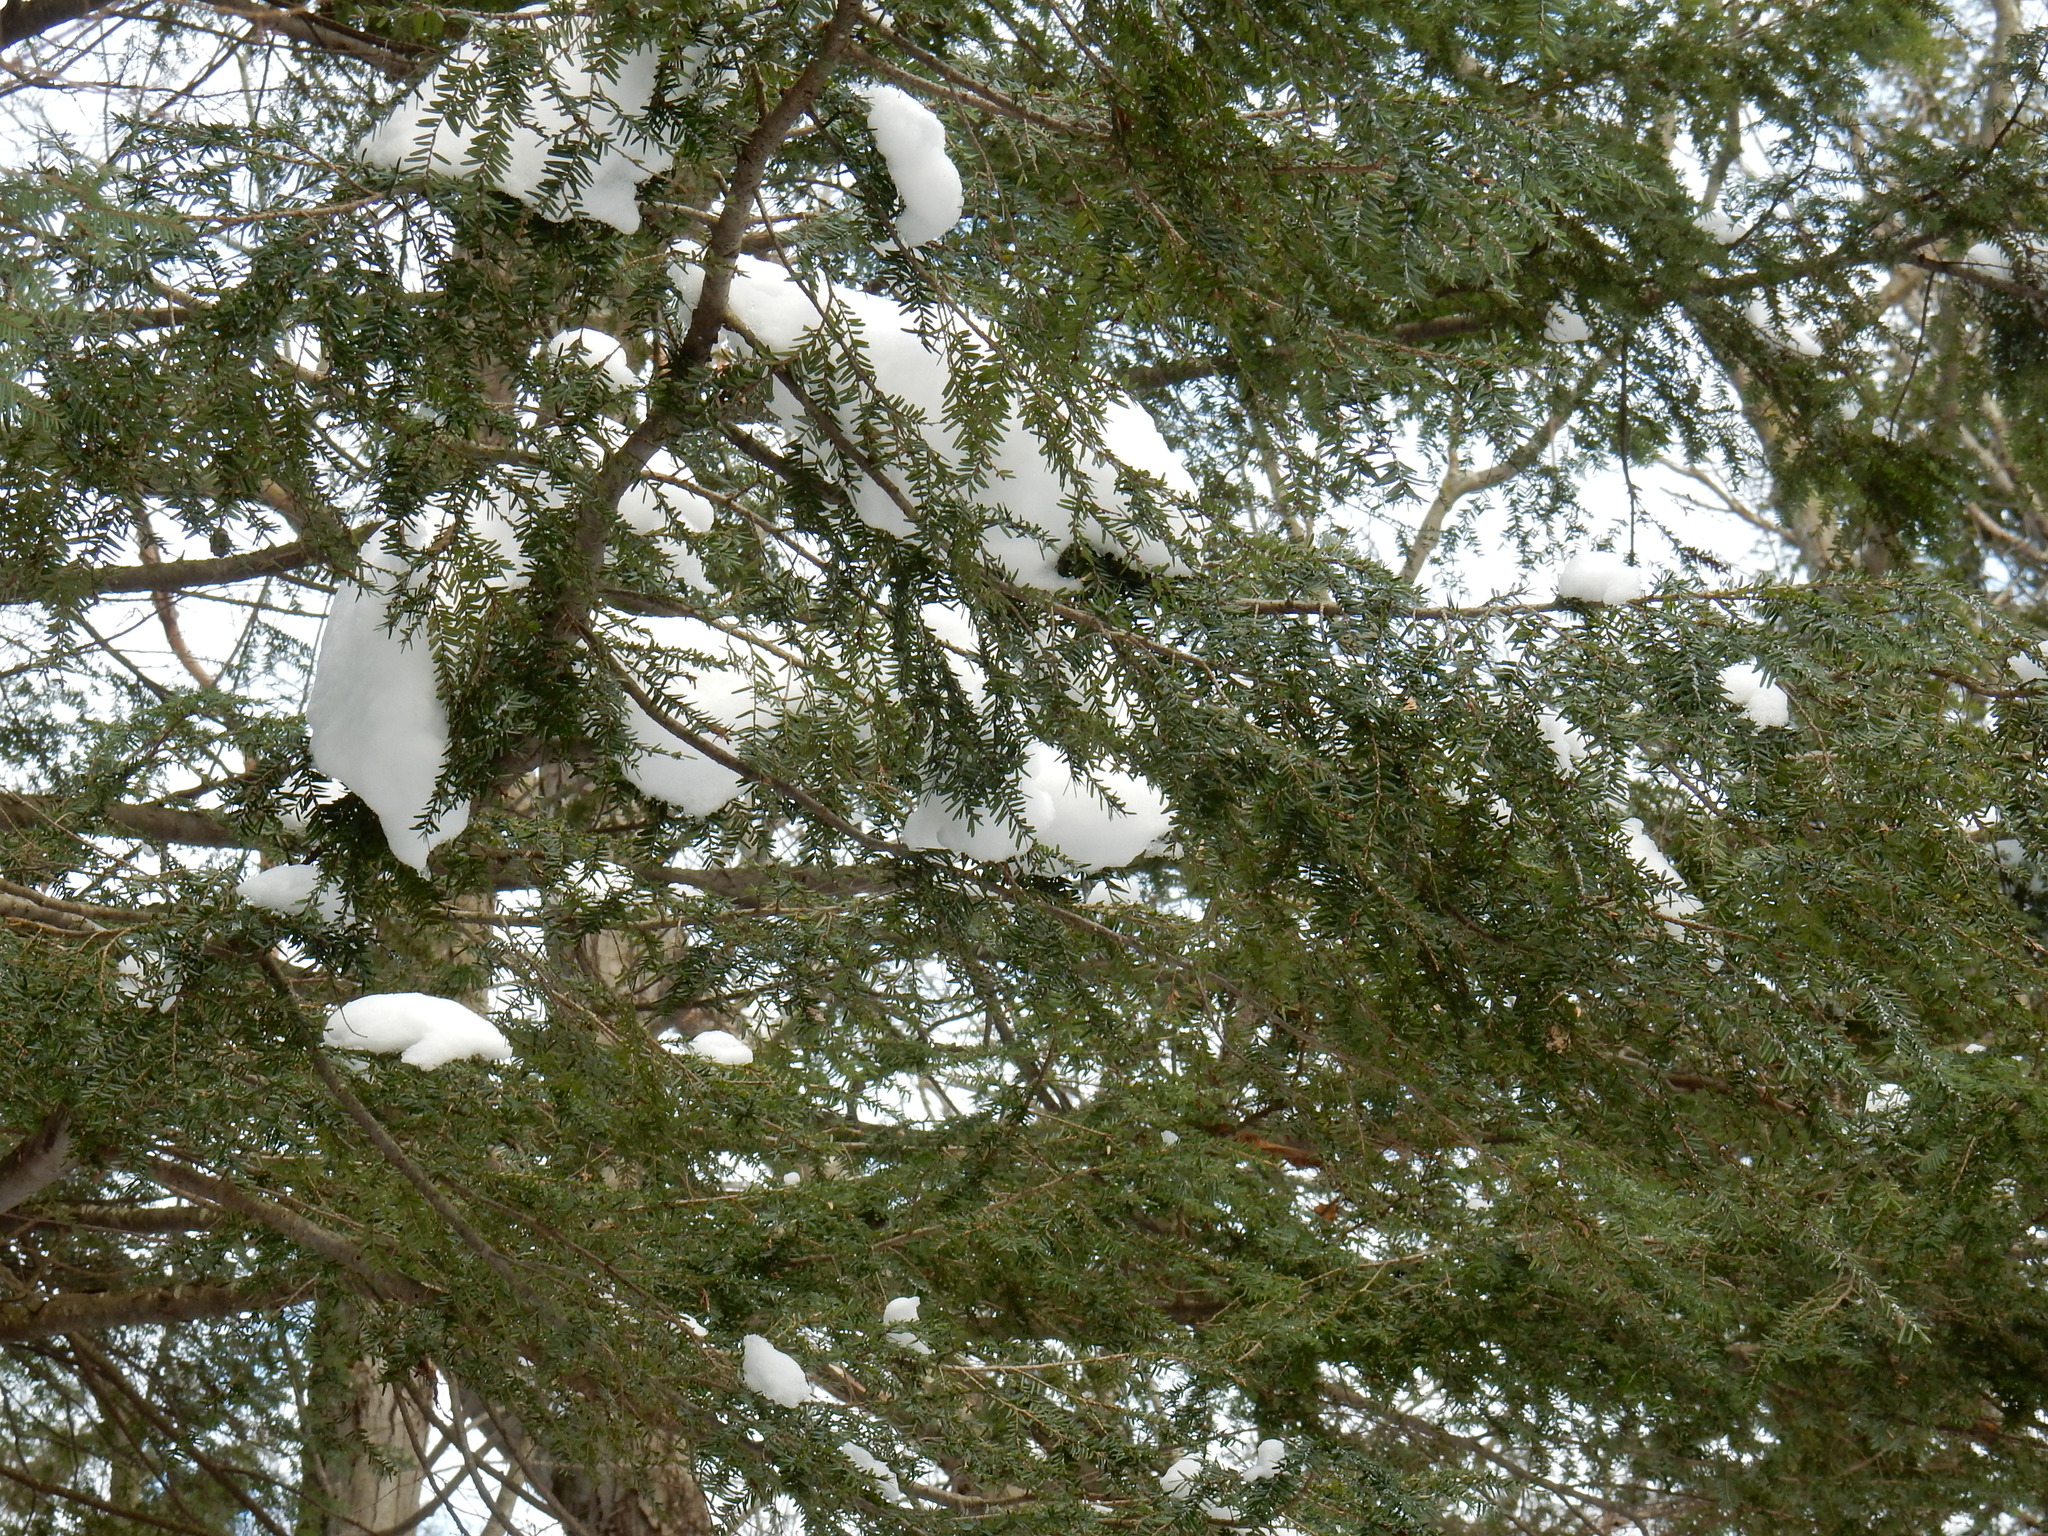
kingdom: Animalia
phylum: Arthropoda
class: Insecta
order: Hemiptera
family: Adelgidae
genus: Adelges
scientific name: Adelges tsugae
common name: Hemlock woolly adelgid
